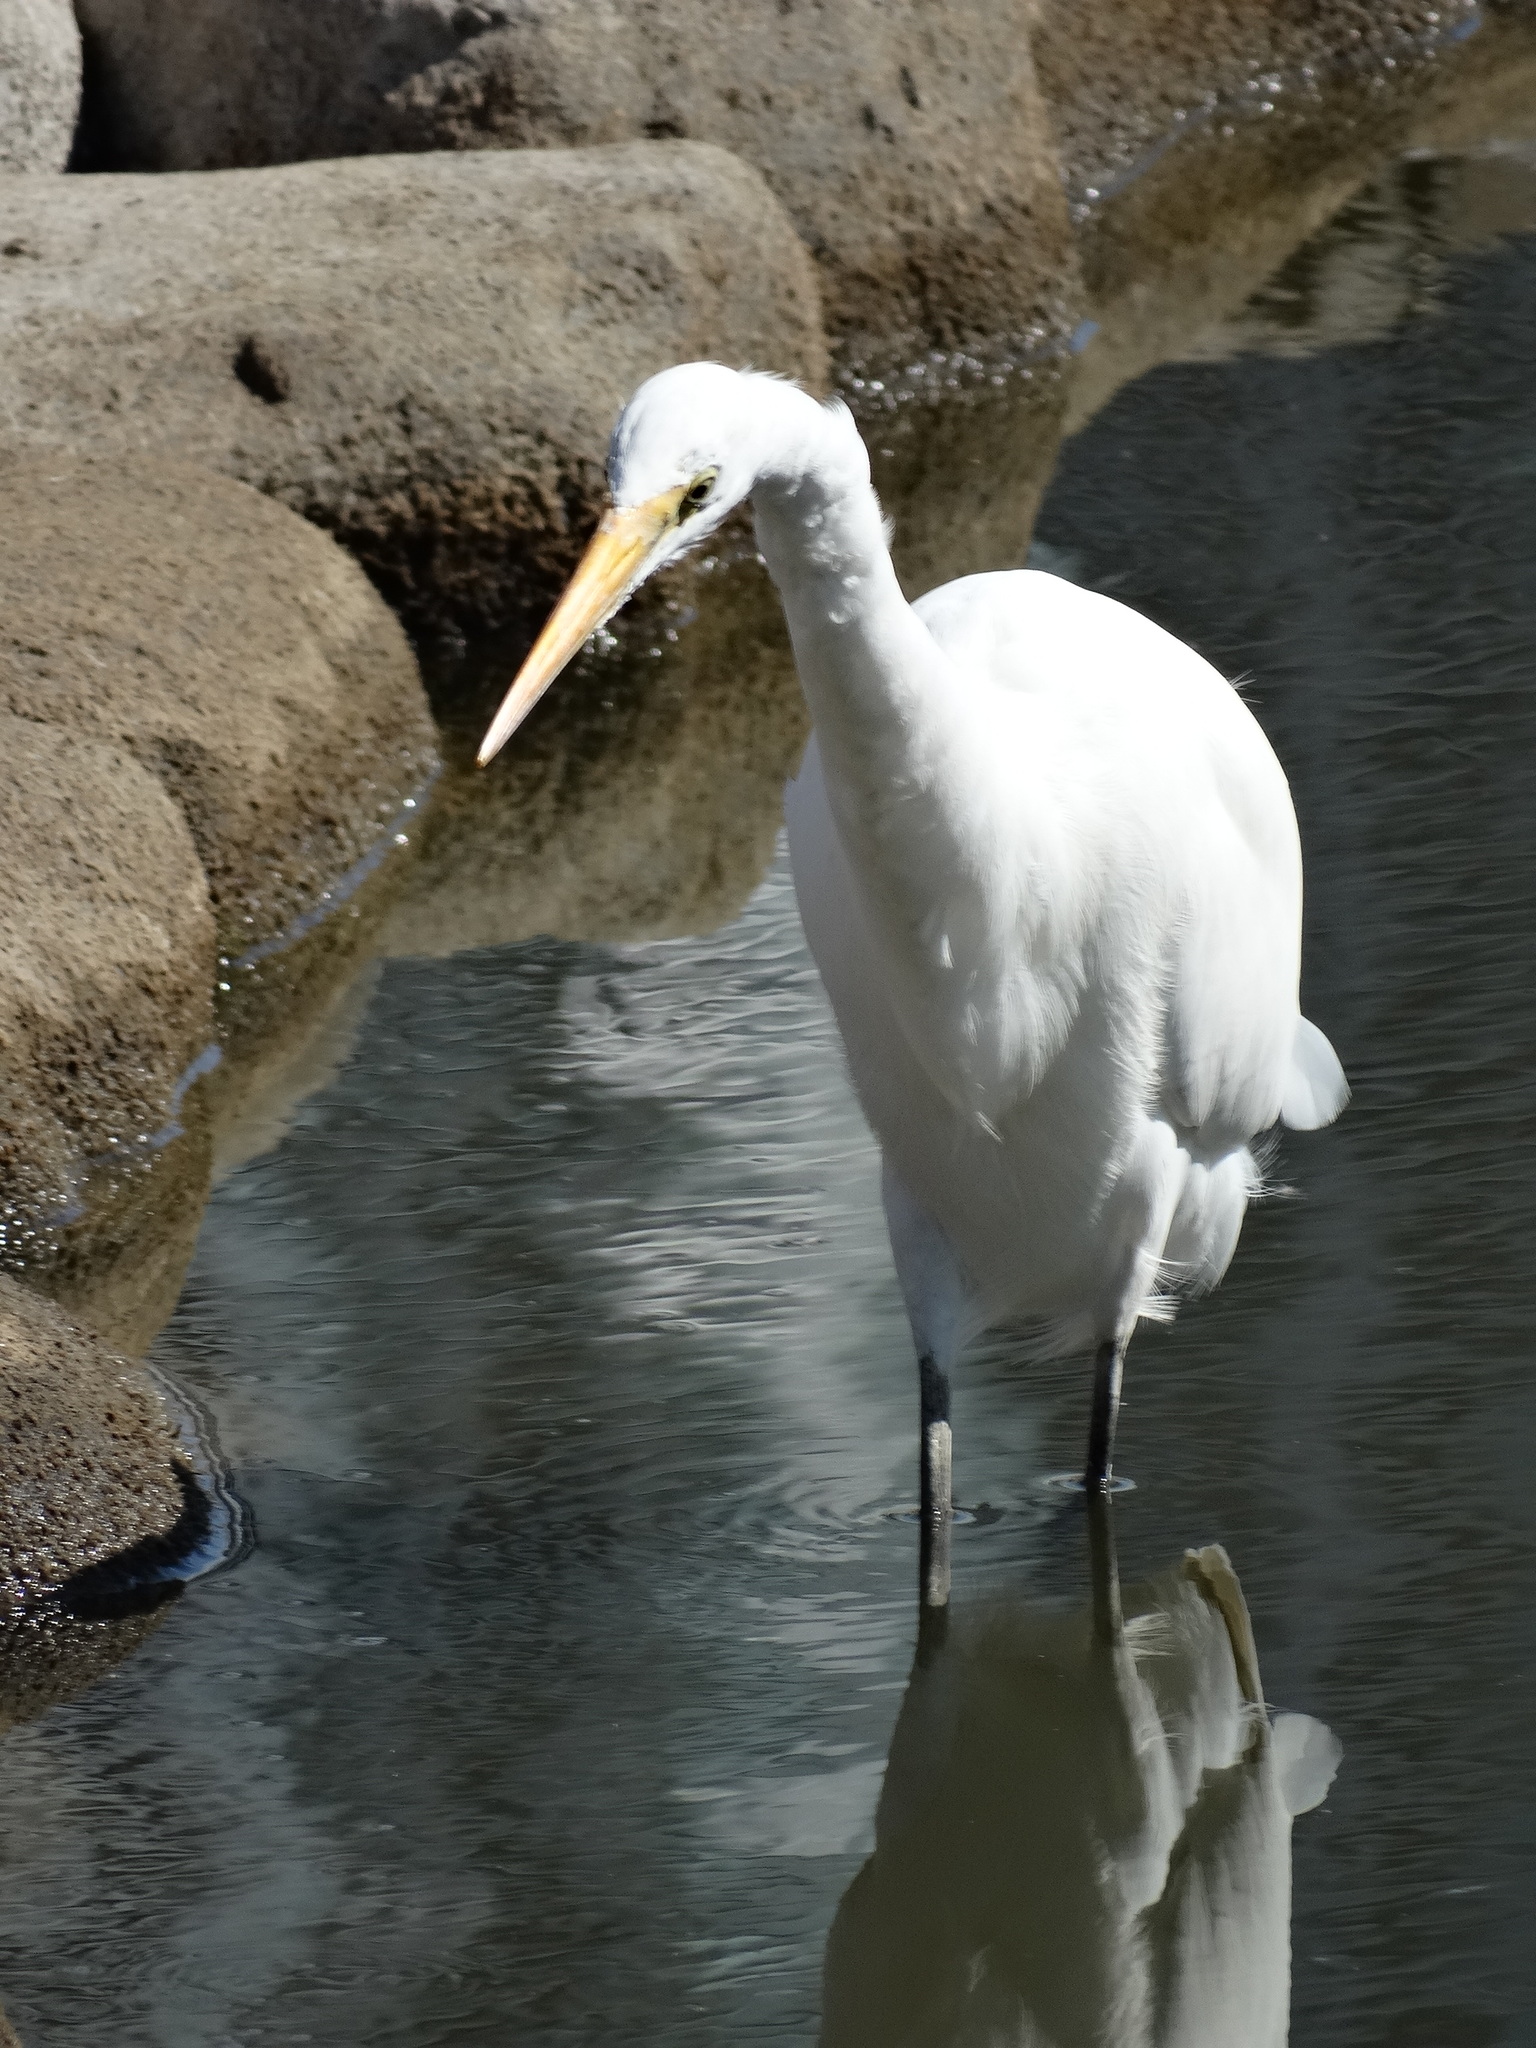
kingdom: Animalia
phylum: Chordata
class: Aves
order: Pelecaniformes
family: Ardeidae
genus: Ardea
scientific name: Ardea alba
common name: Great egret
